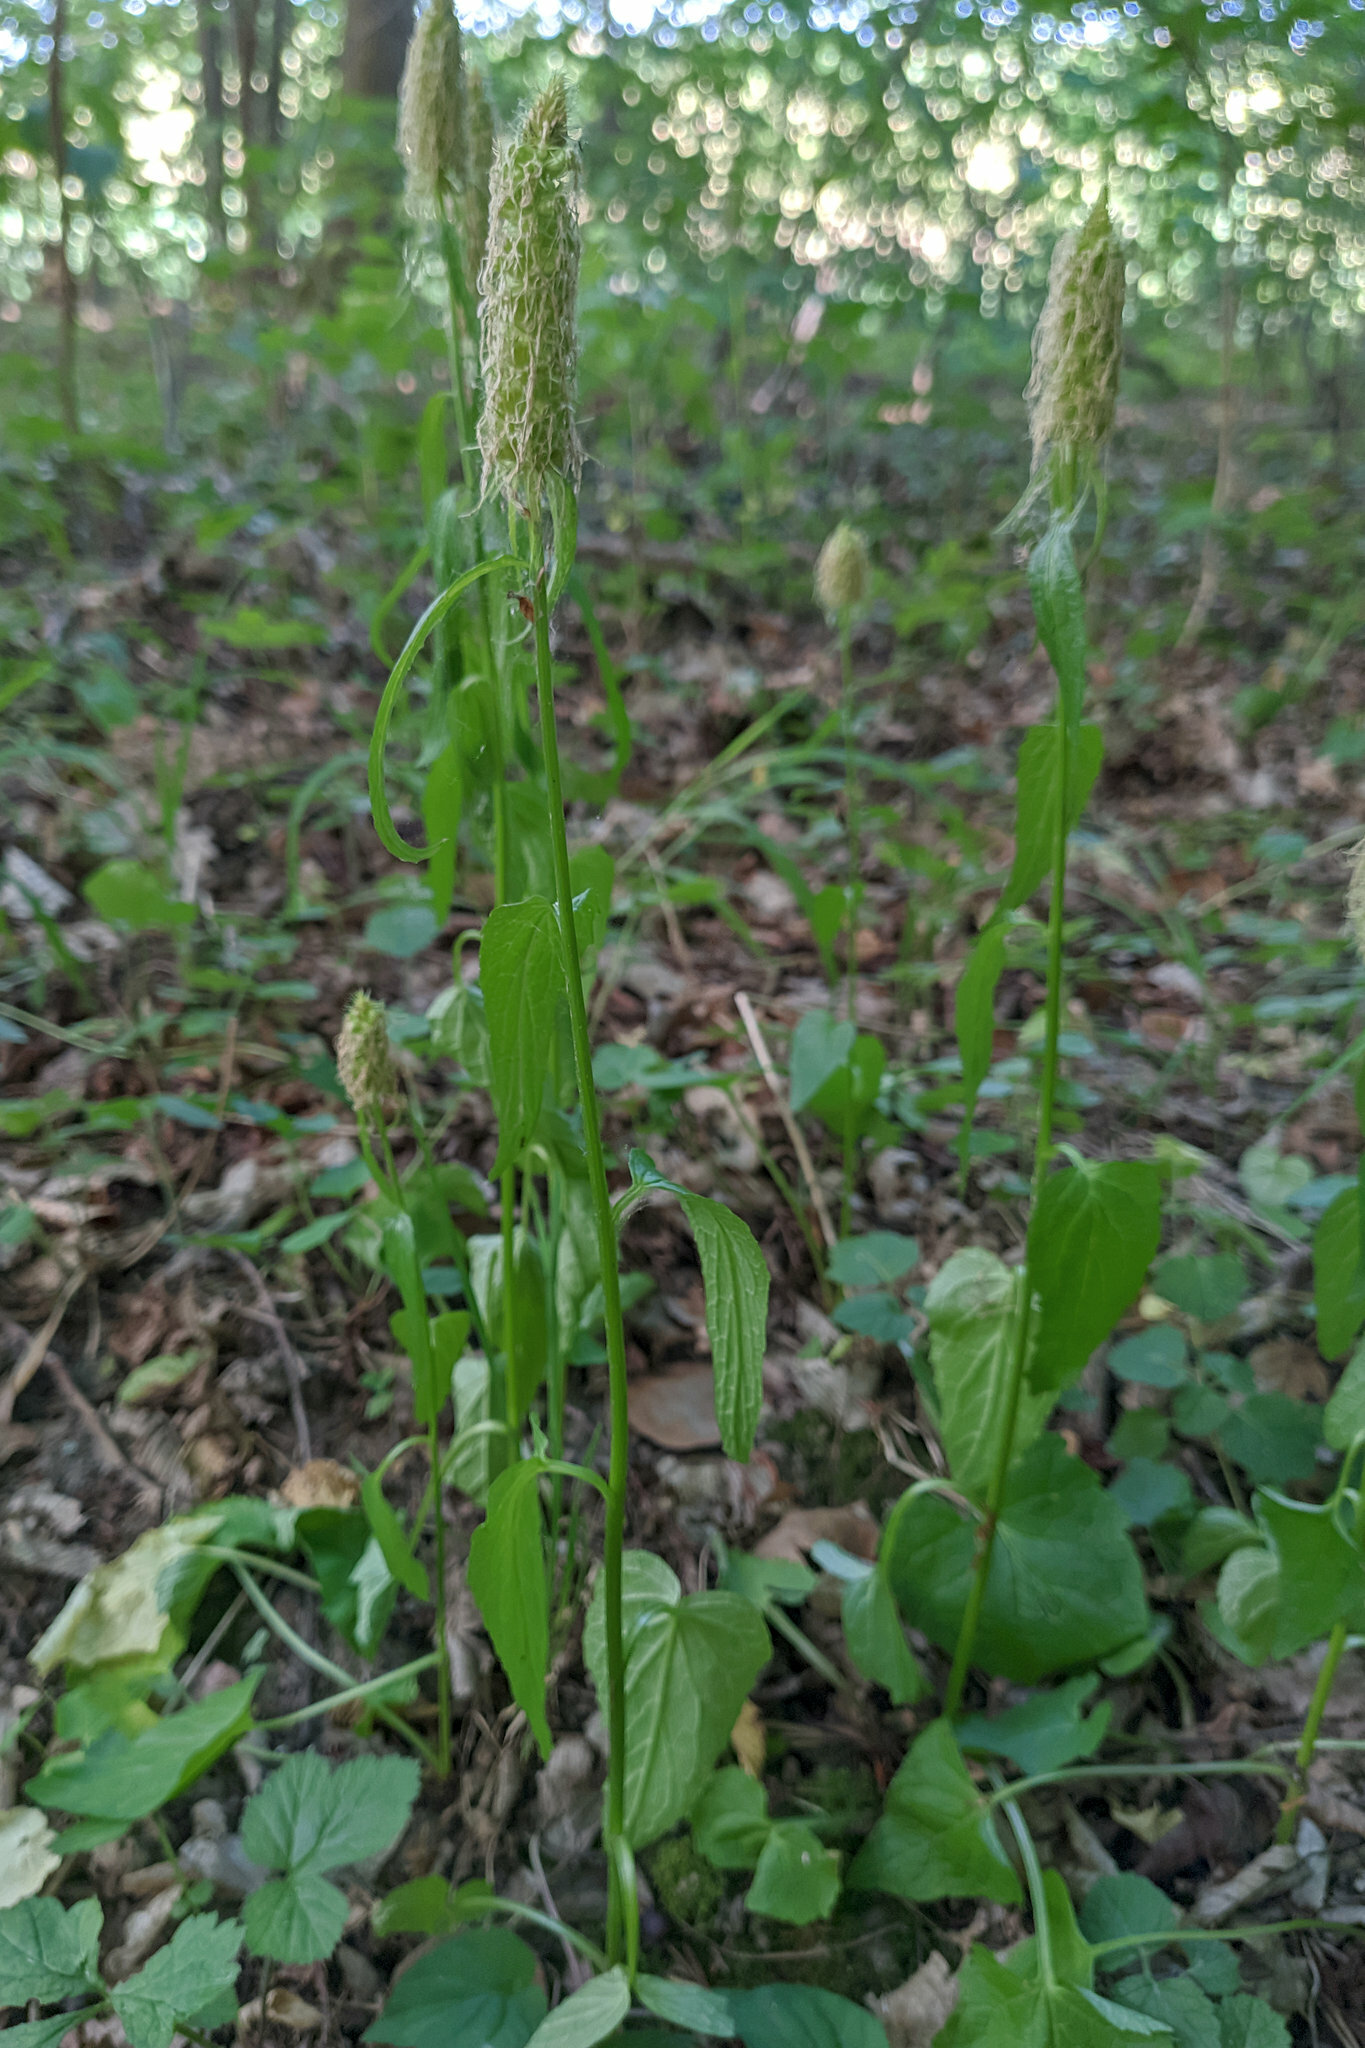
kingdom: Plantae
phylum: Tracheophyta
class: Magnoliopsida
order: Asterales
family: Campanulaceae
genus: Phyteuma
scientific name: Phyteuma spicatum
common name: Spiked rampion
